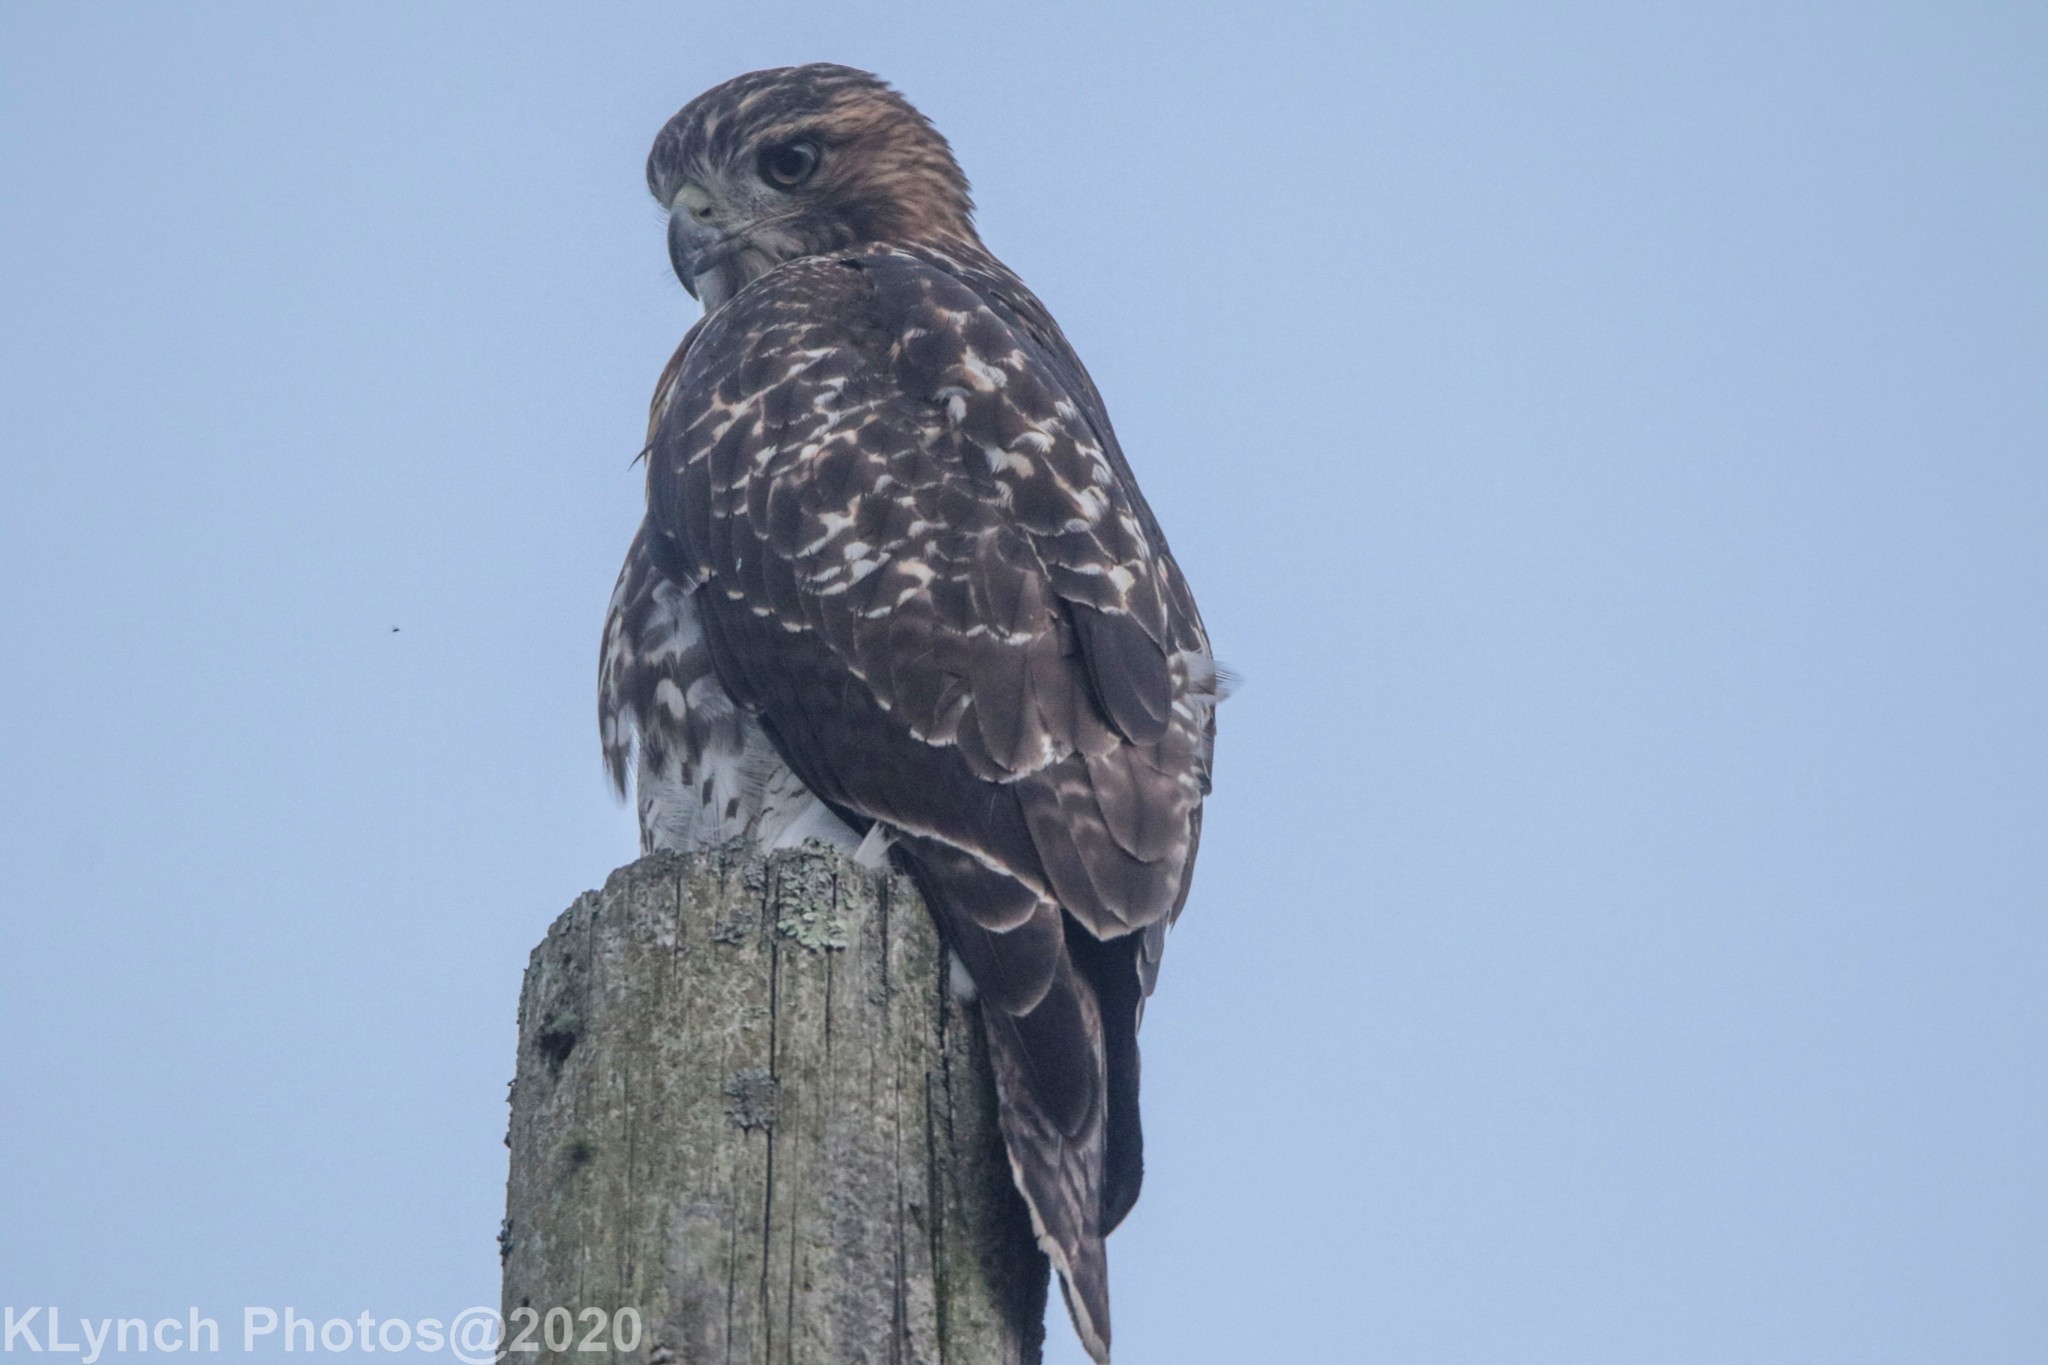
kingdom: Animalia
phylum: Chordata
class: Aves
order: Accipitriformes
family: Accipitridae
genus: Buteo
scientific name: Buteo jamaicensis
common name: Red-tailed hawk
